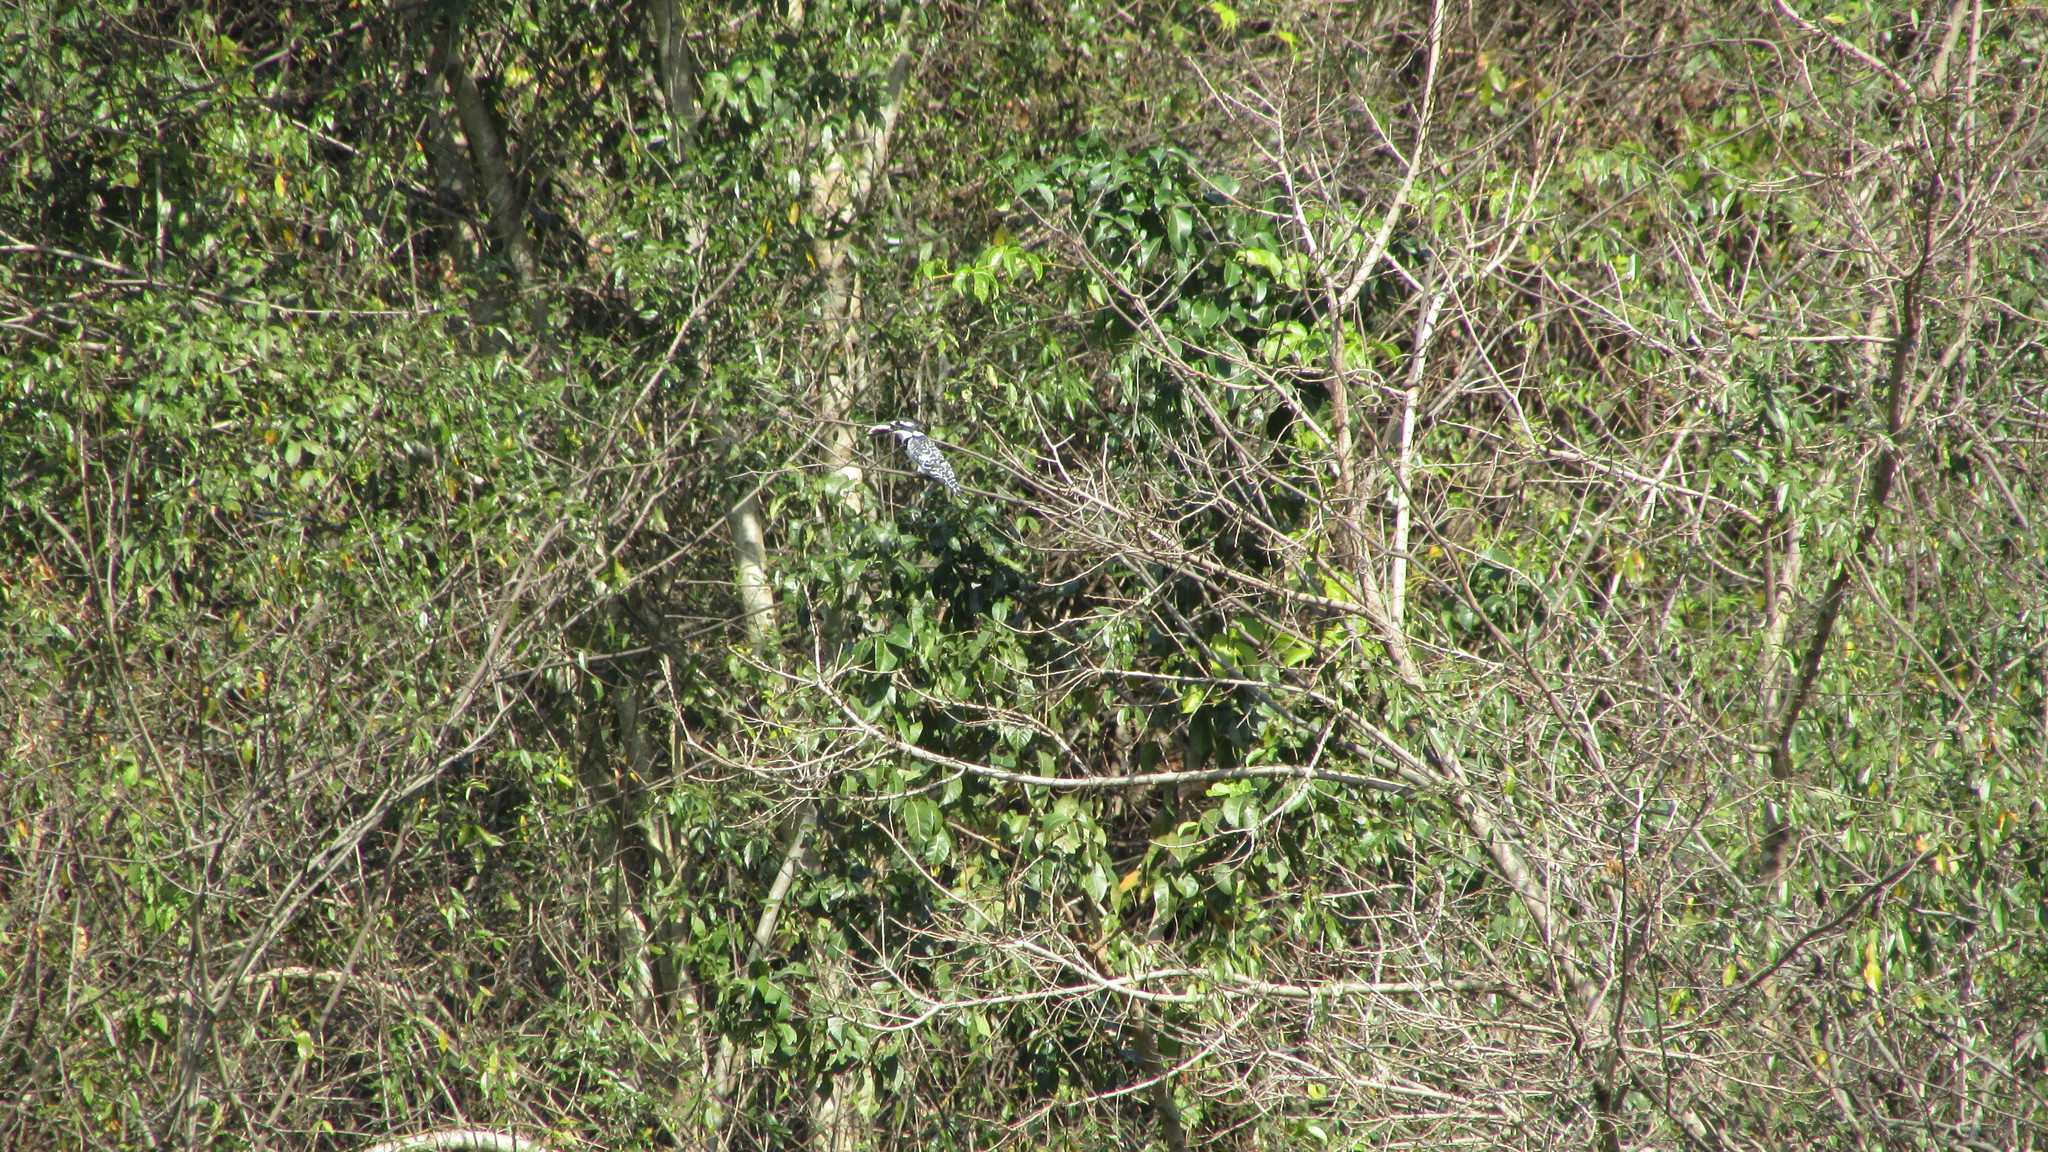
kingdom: Animalia
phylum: Chordata
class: Aves
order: Coraciiformes
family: Alcedinidae
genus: Ceryle
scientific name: Ceryle rudis
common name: Pied kingfisher
